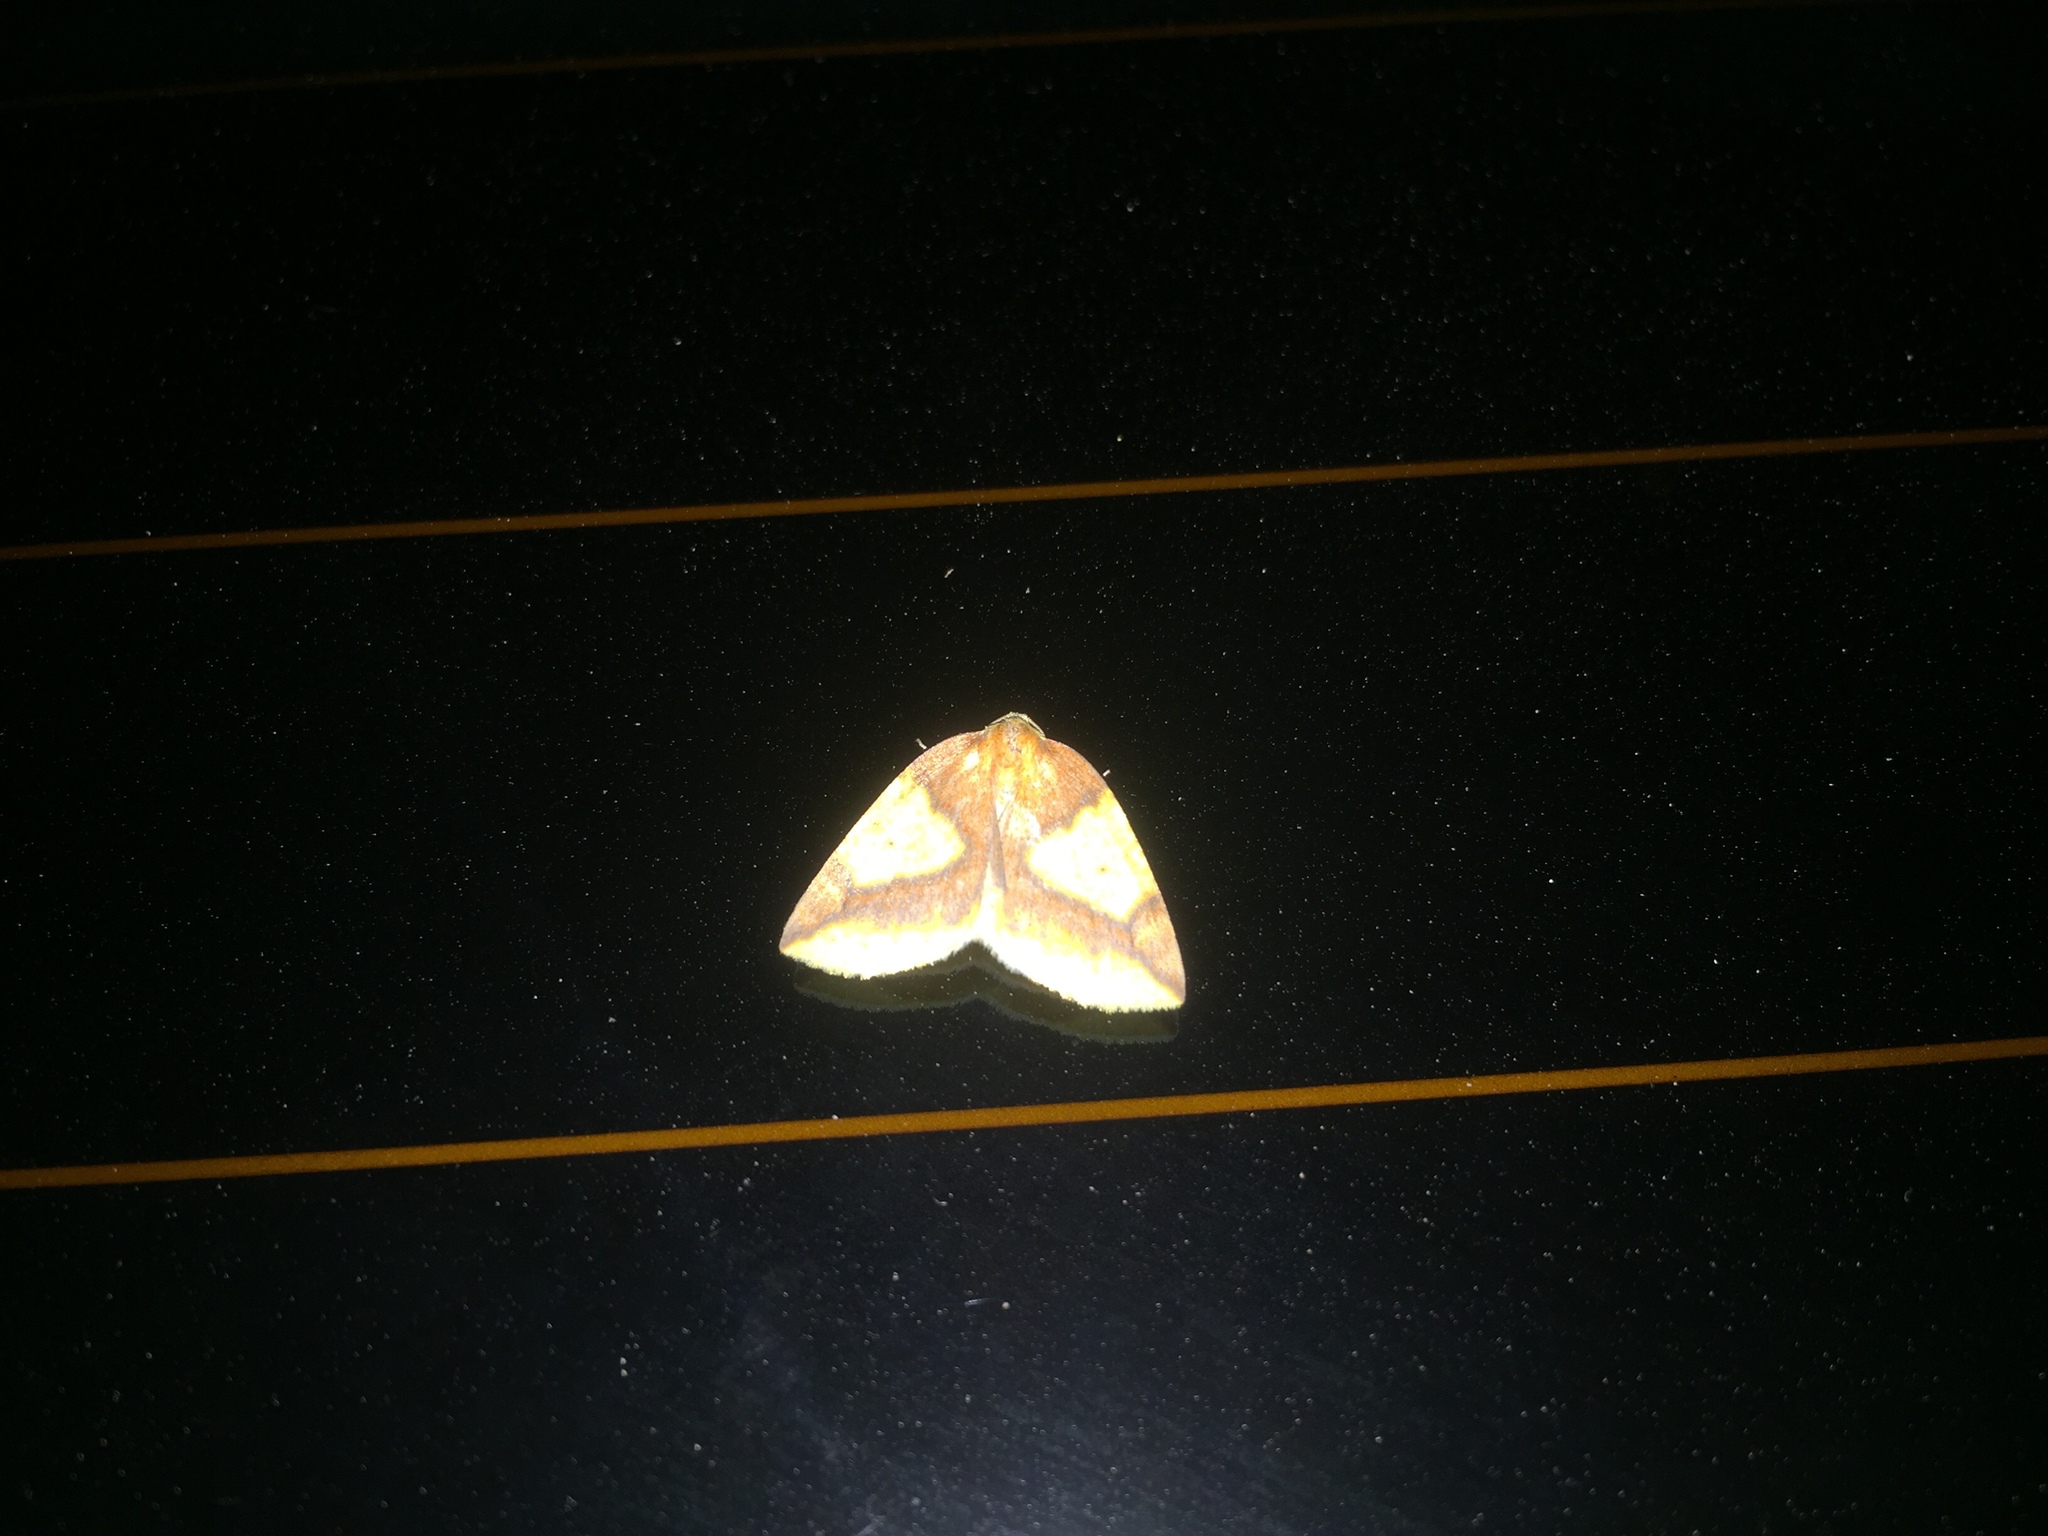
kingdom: Animalia
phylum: Arthropoda
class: Insecta
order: Lepidoptera
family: Geometridae
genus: Perusia
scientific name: Perusia inusta
